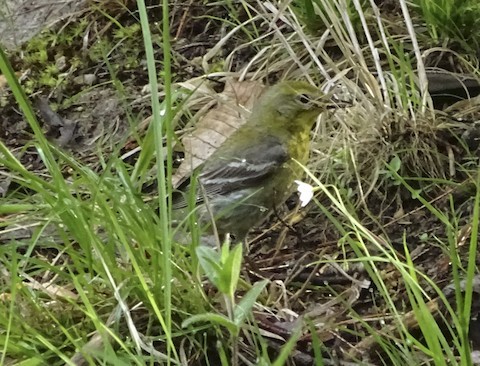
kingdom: Animalia
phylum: Chordata
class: Aves
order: Passeriformes
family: Parulidae
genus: Setophaga
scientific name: Setophaga pinus
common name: Pine warbler
